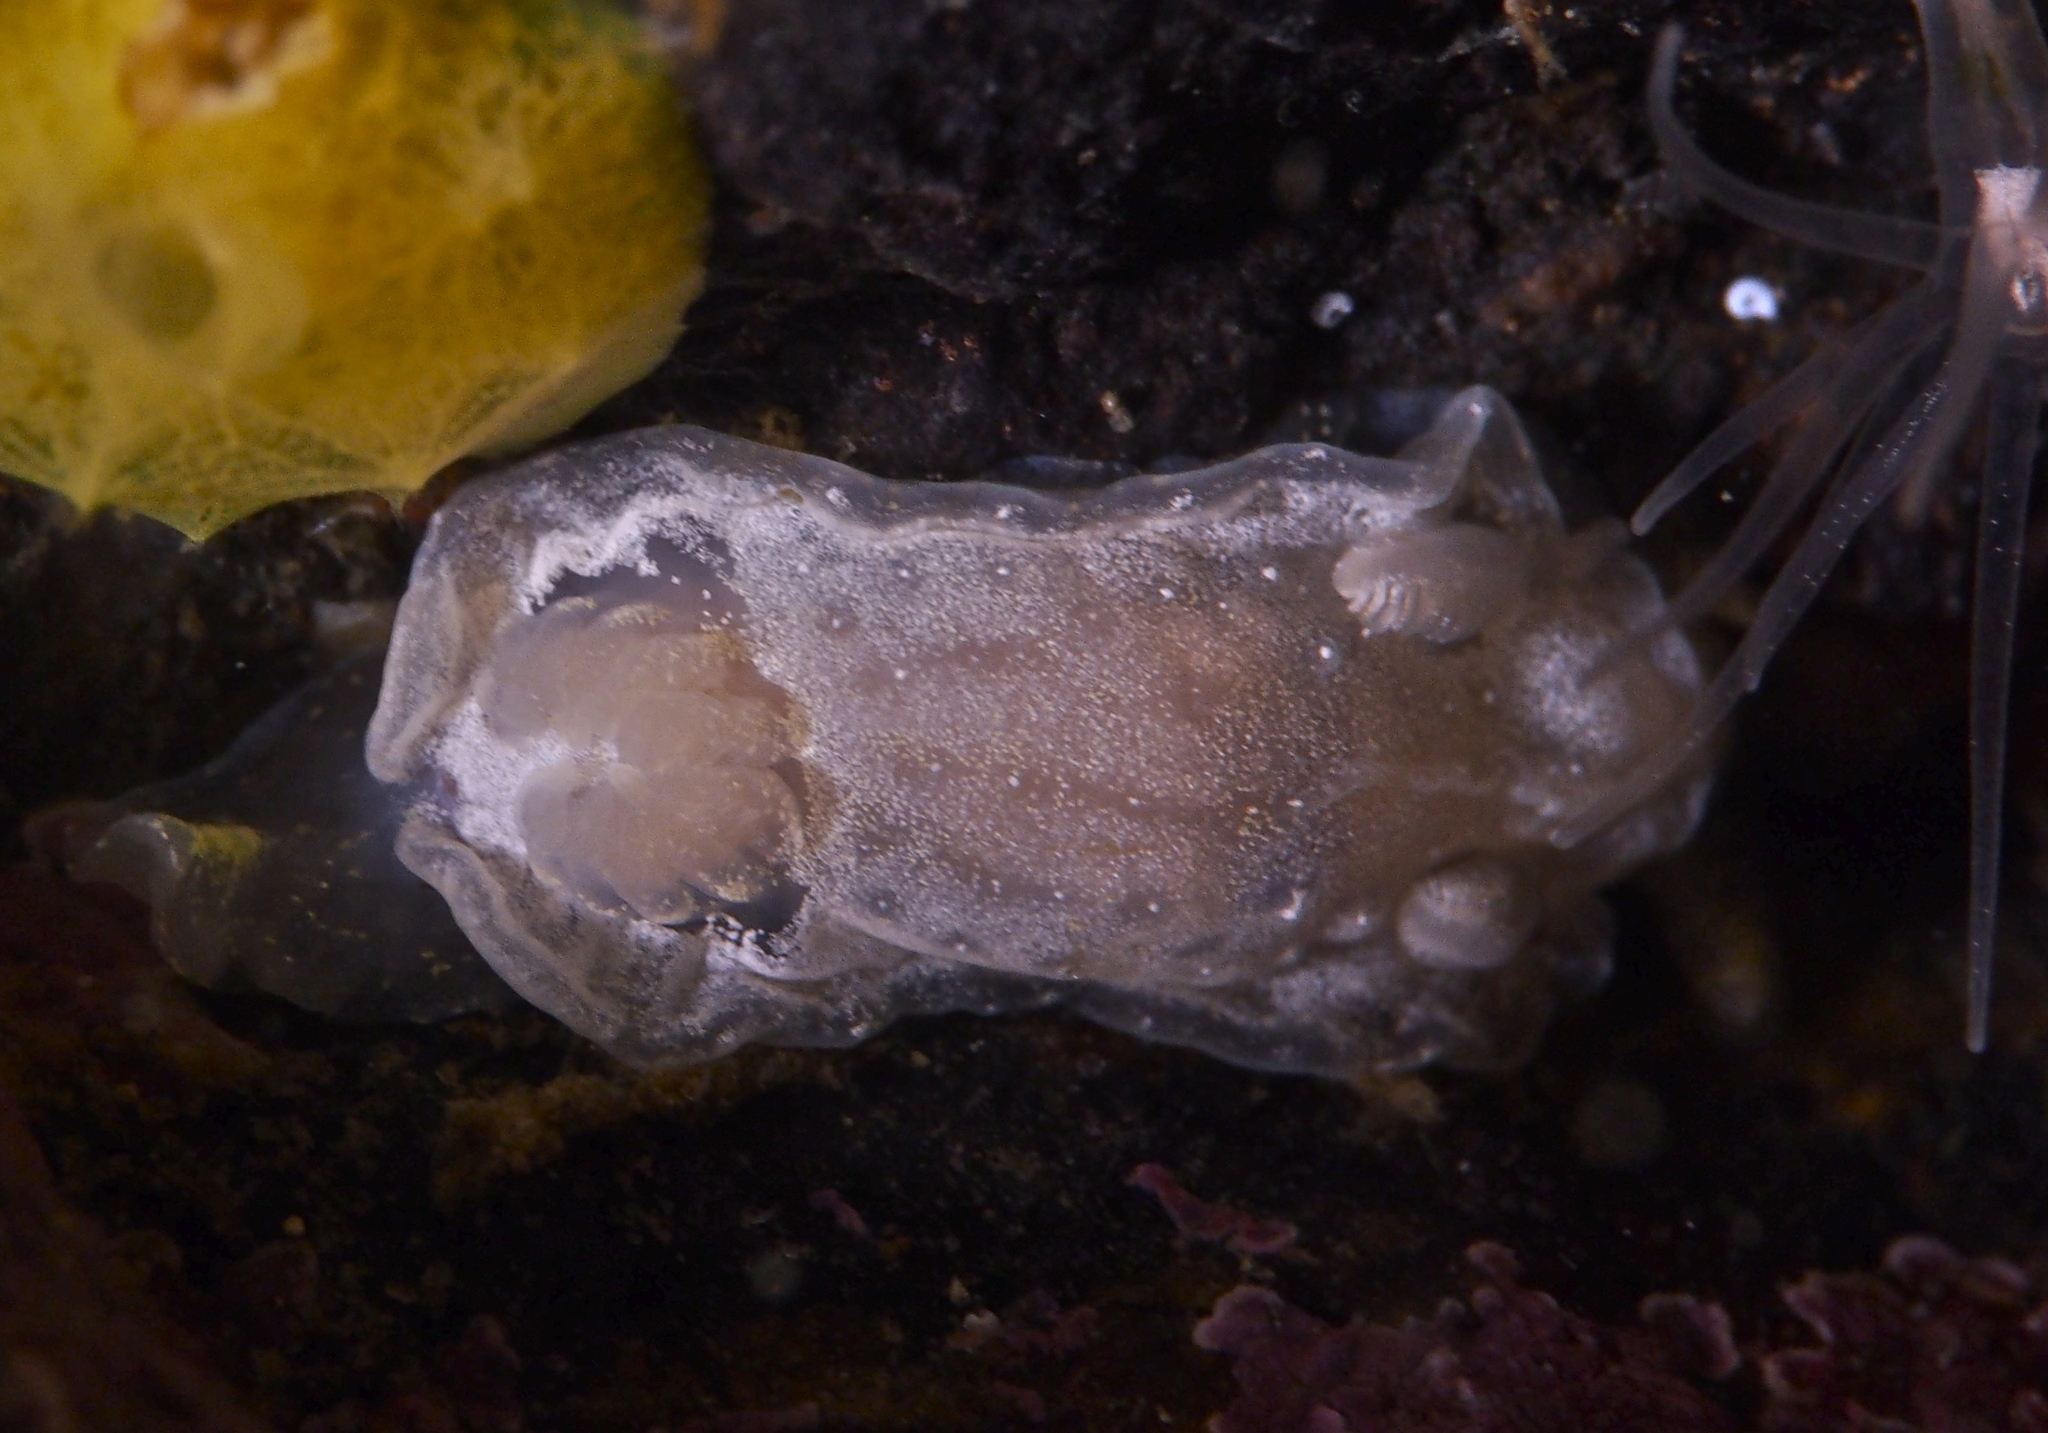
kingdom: Animalia
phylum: Mollusca
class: Gastropoda
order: Nudibranchia
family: Goniodorididae
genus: Okenia
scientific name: Okenia
